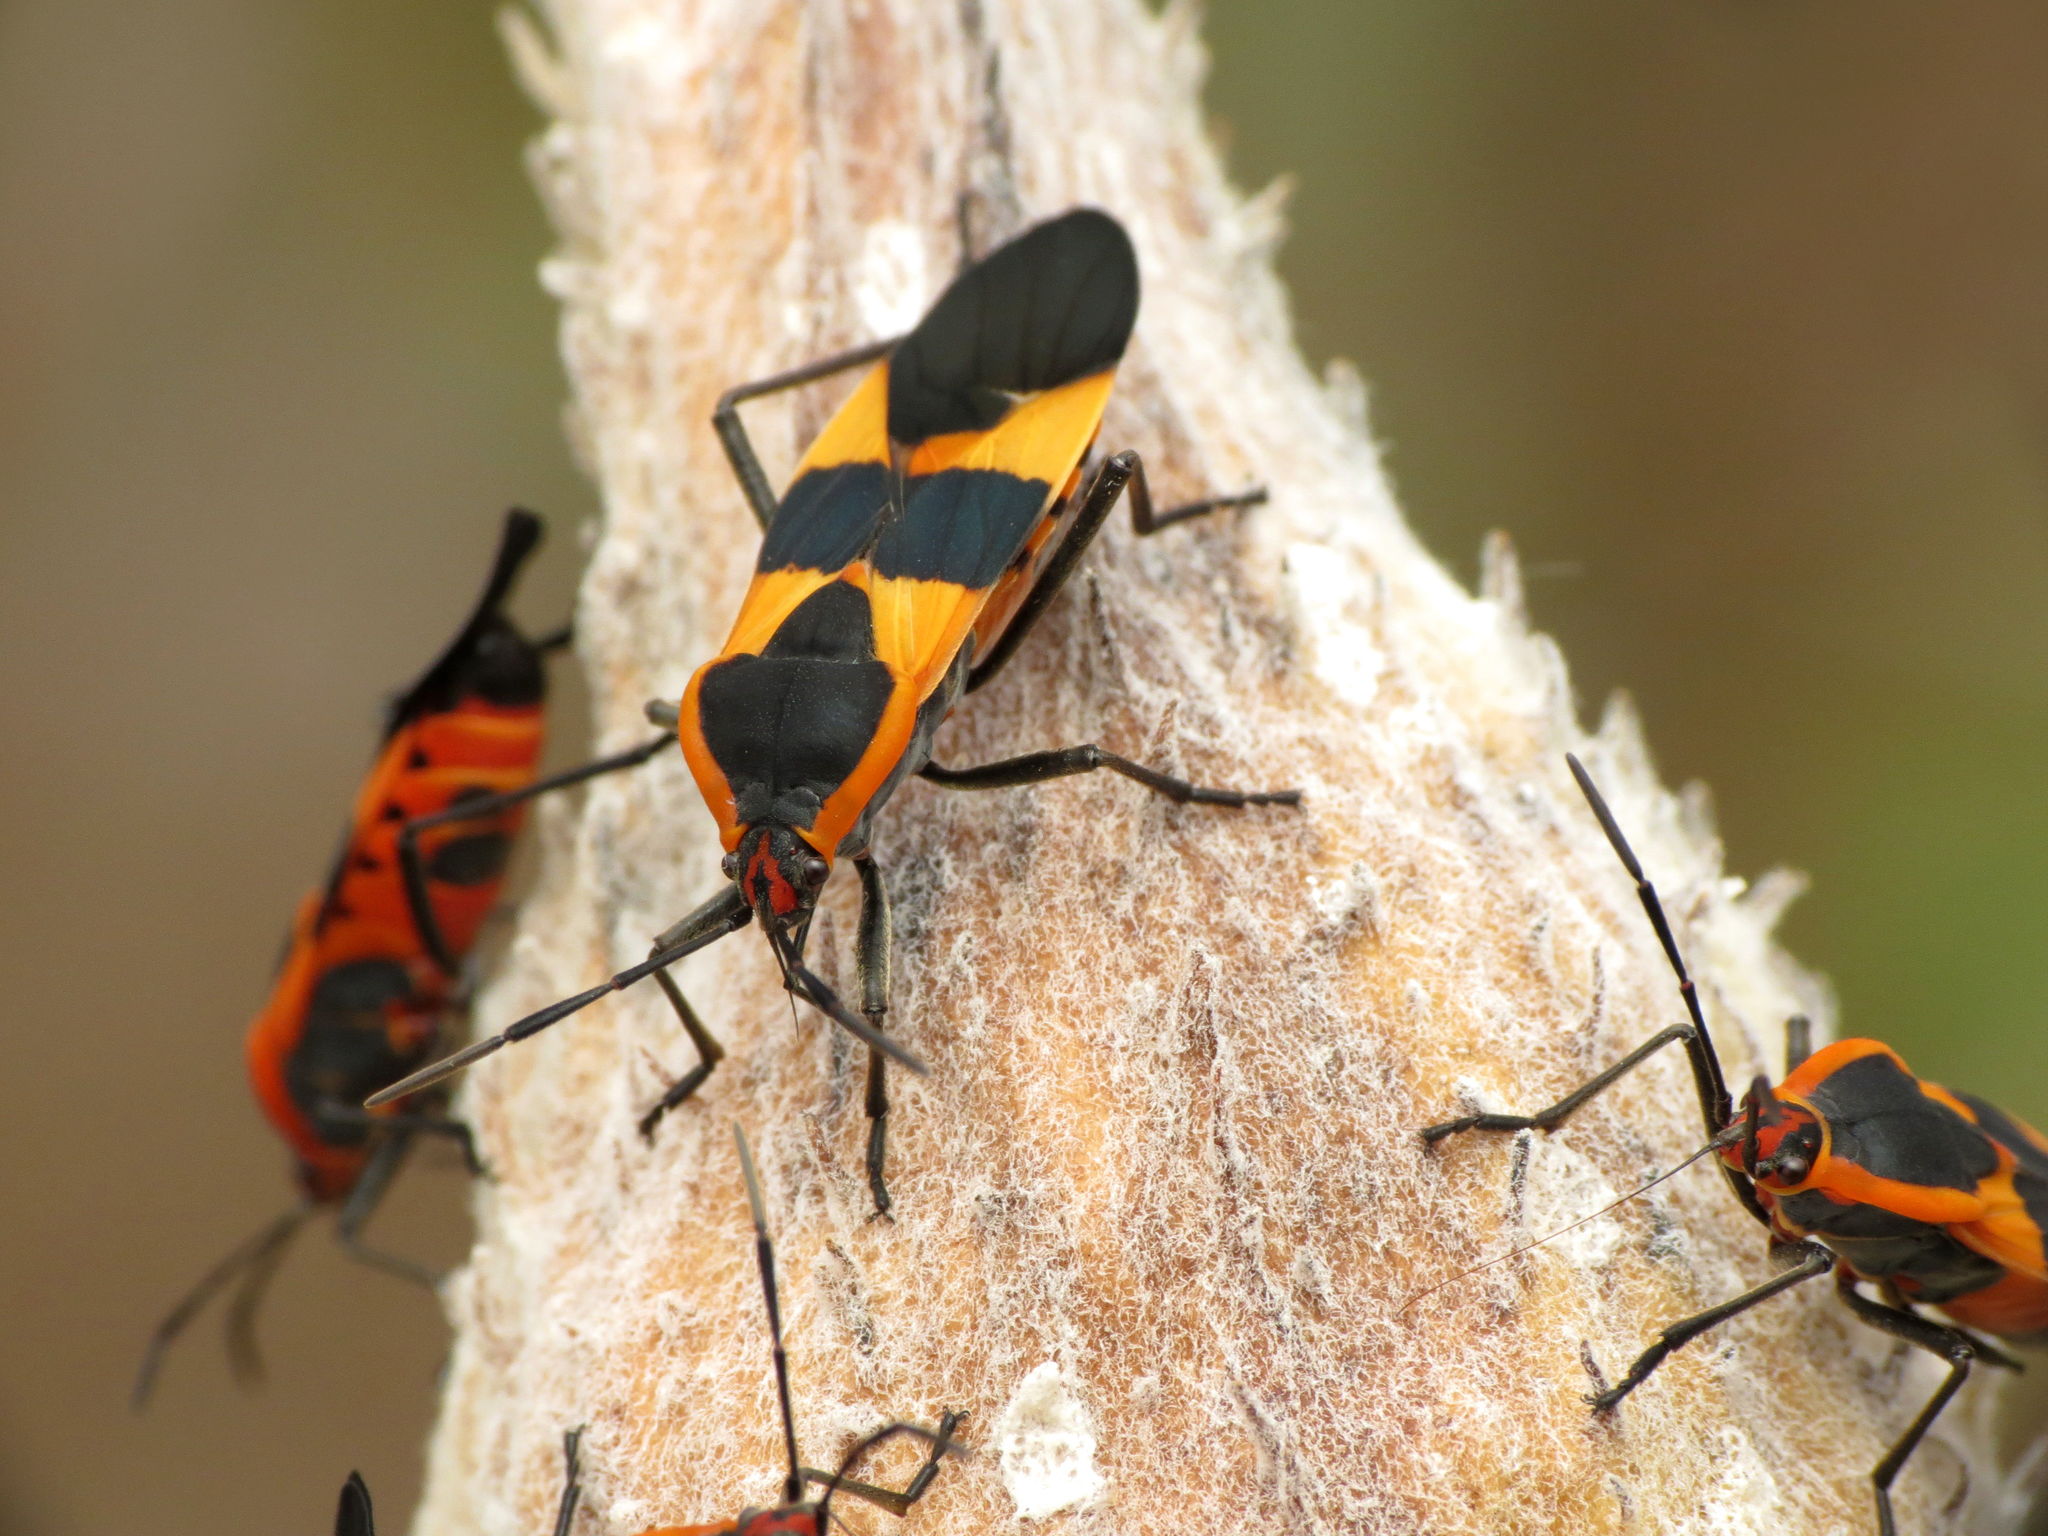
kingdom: Animalia
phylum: Arthropoda
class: Insecta
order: Hemiptera
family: Lygaeidae
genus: Oncopeltus
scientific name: Oncopeltus fasciatus
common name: Large milkweed bug
